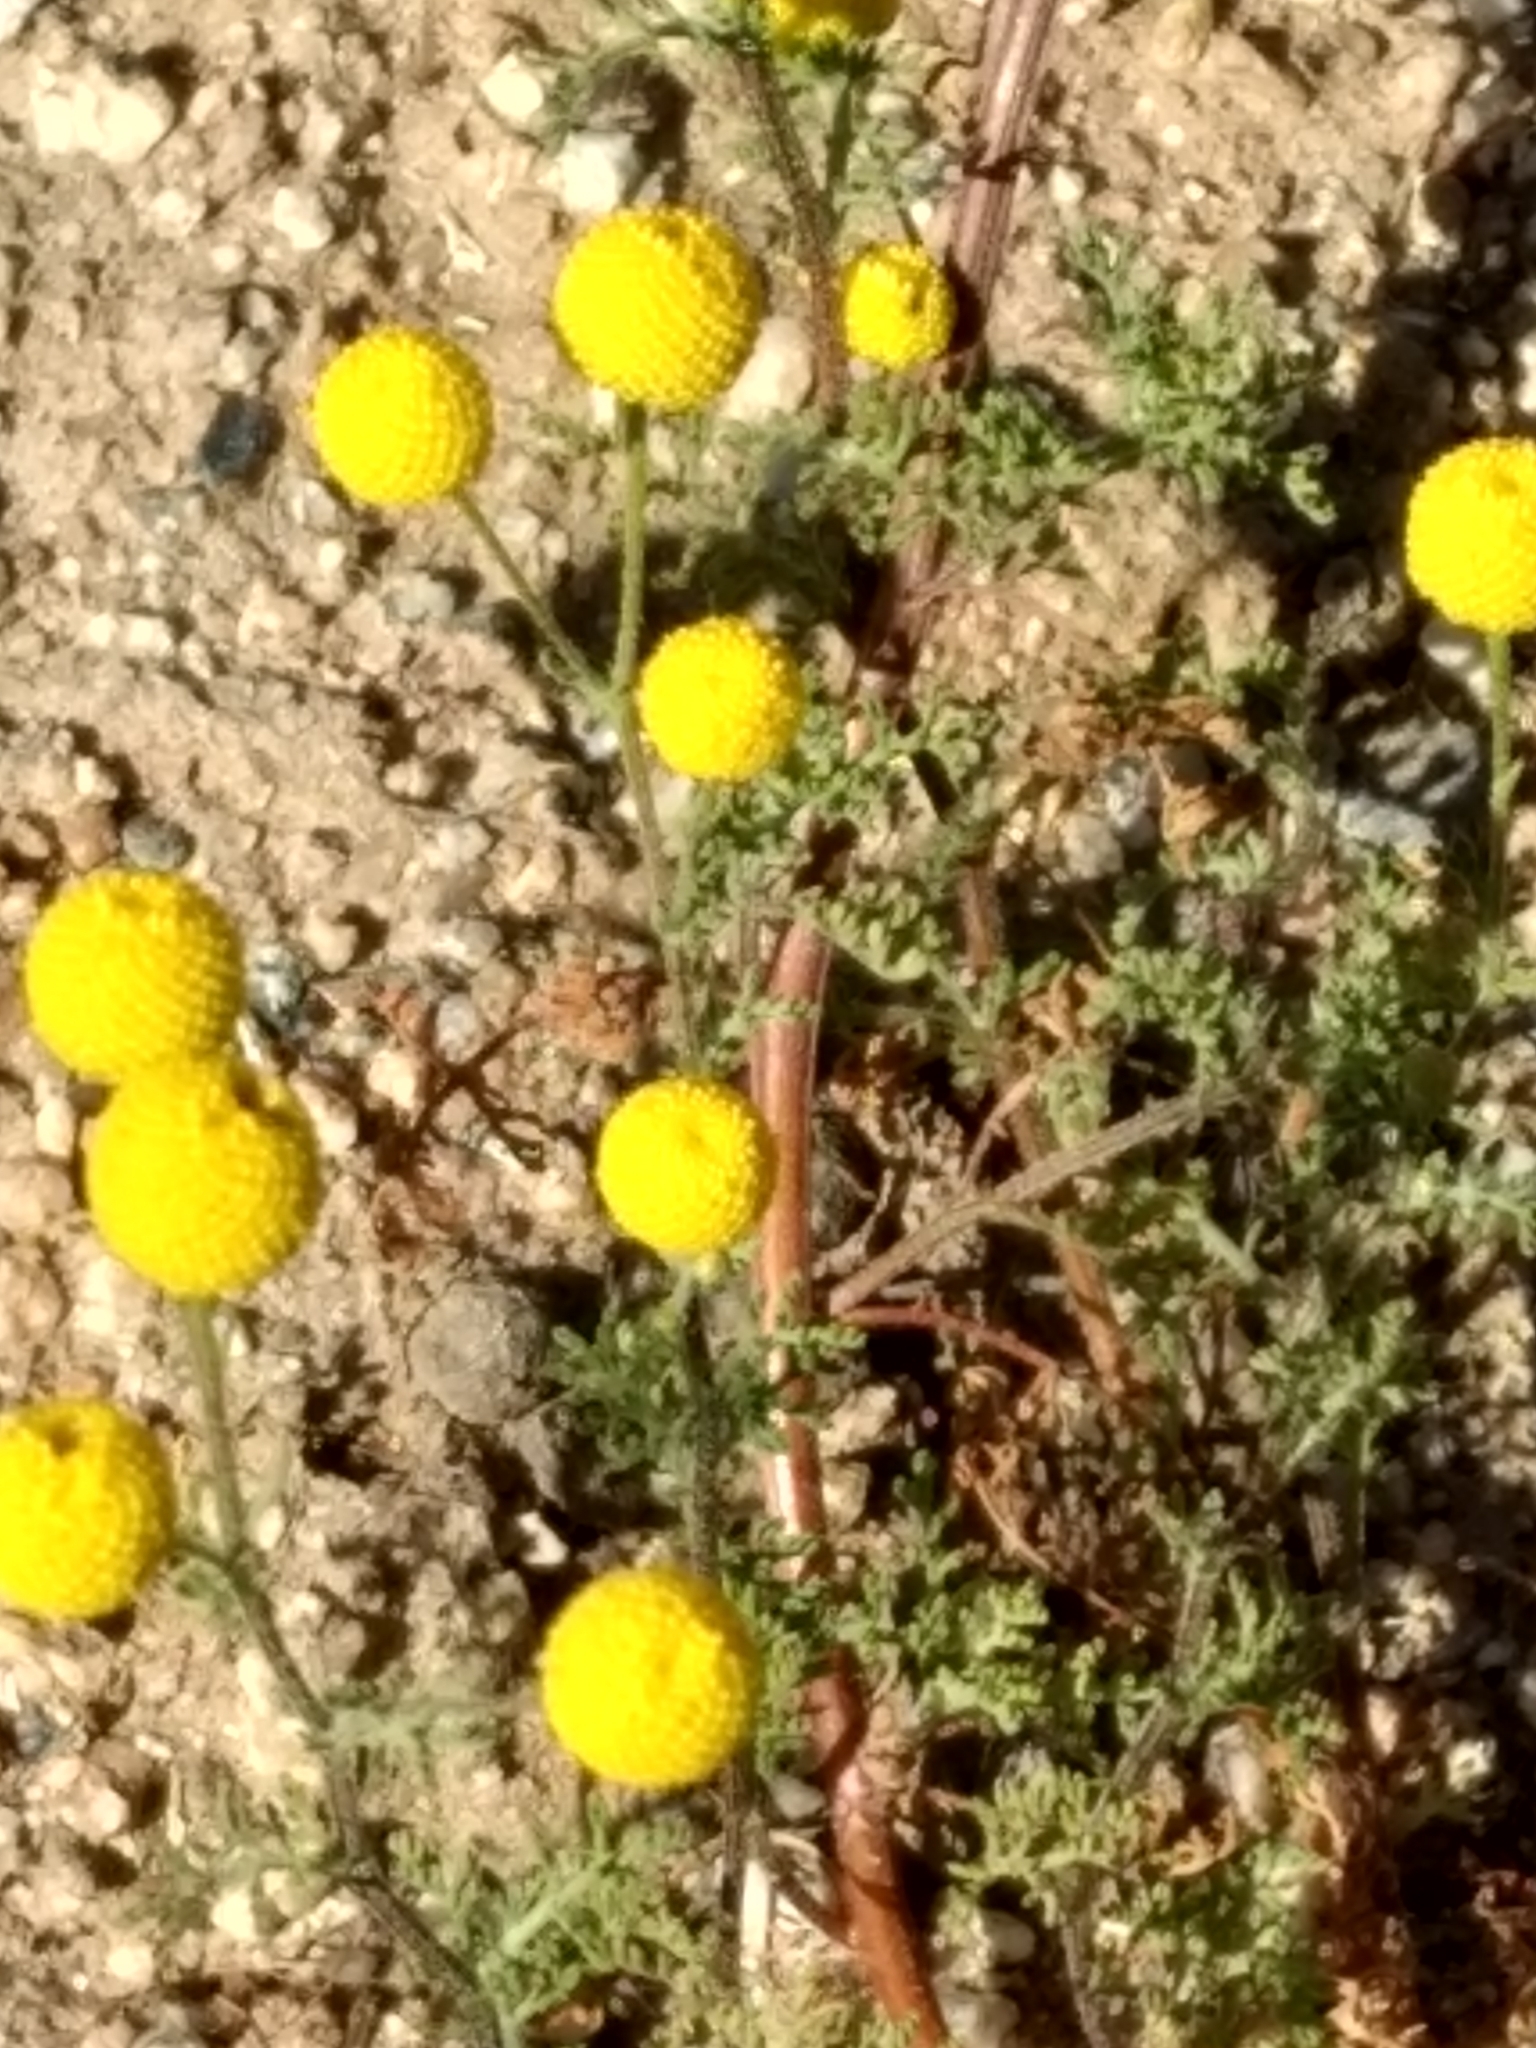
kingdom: Plantae
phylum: Tracheophyta
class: Magnoliopsida
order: Asterales
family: Asteraceae
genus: Oncosiphon
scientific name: Oncosiphon pilulifer
